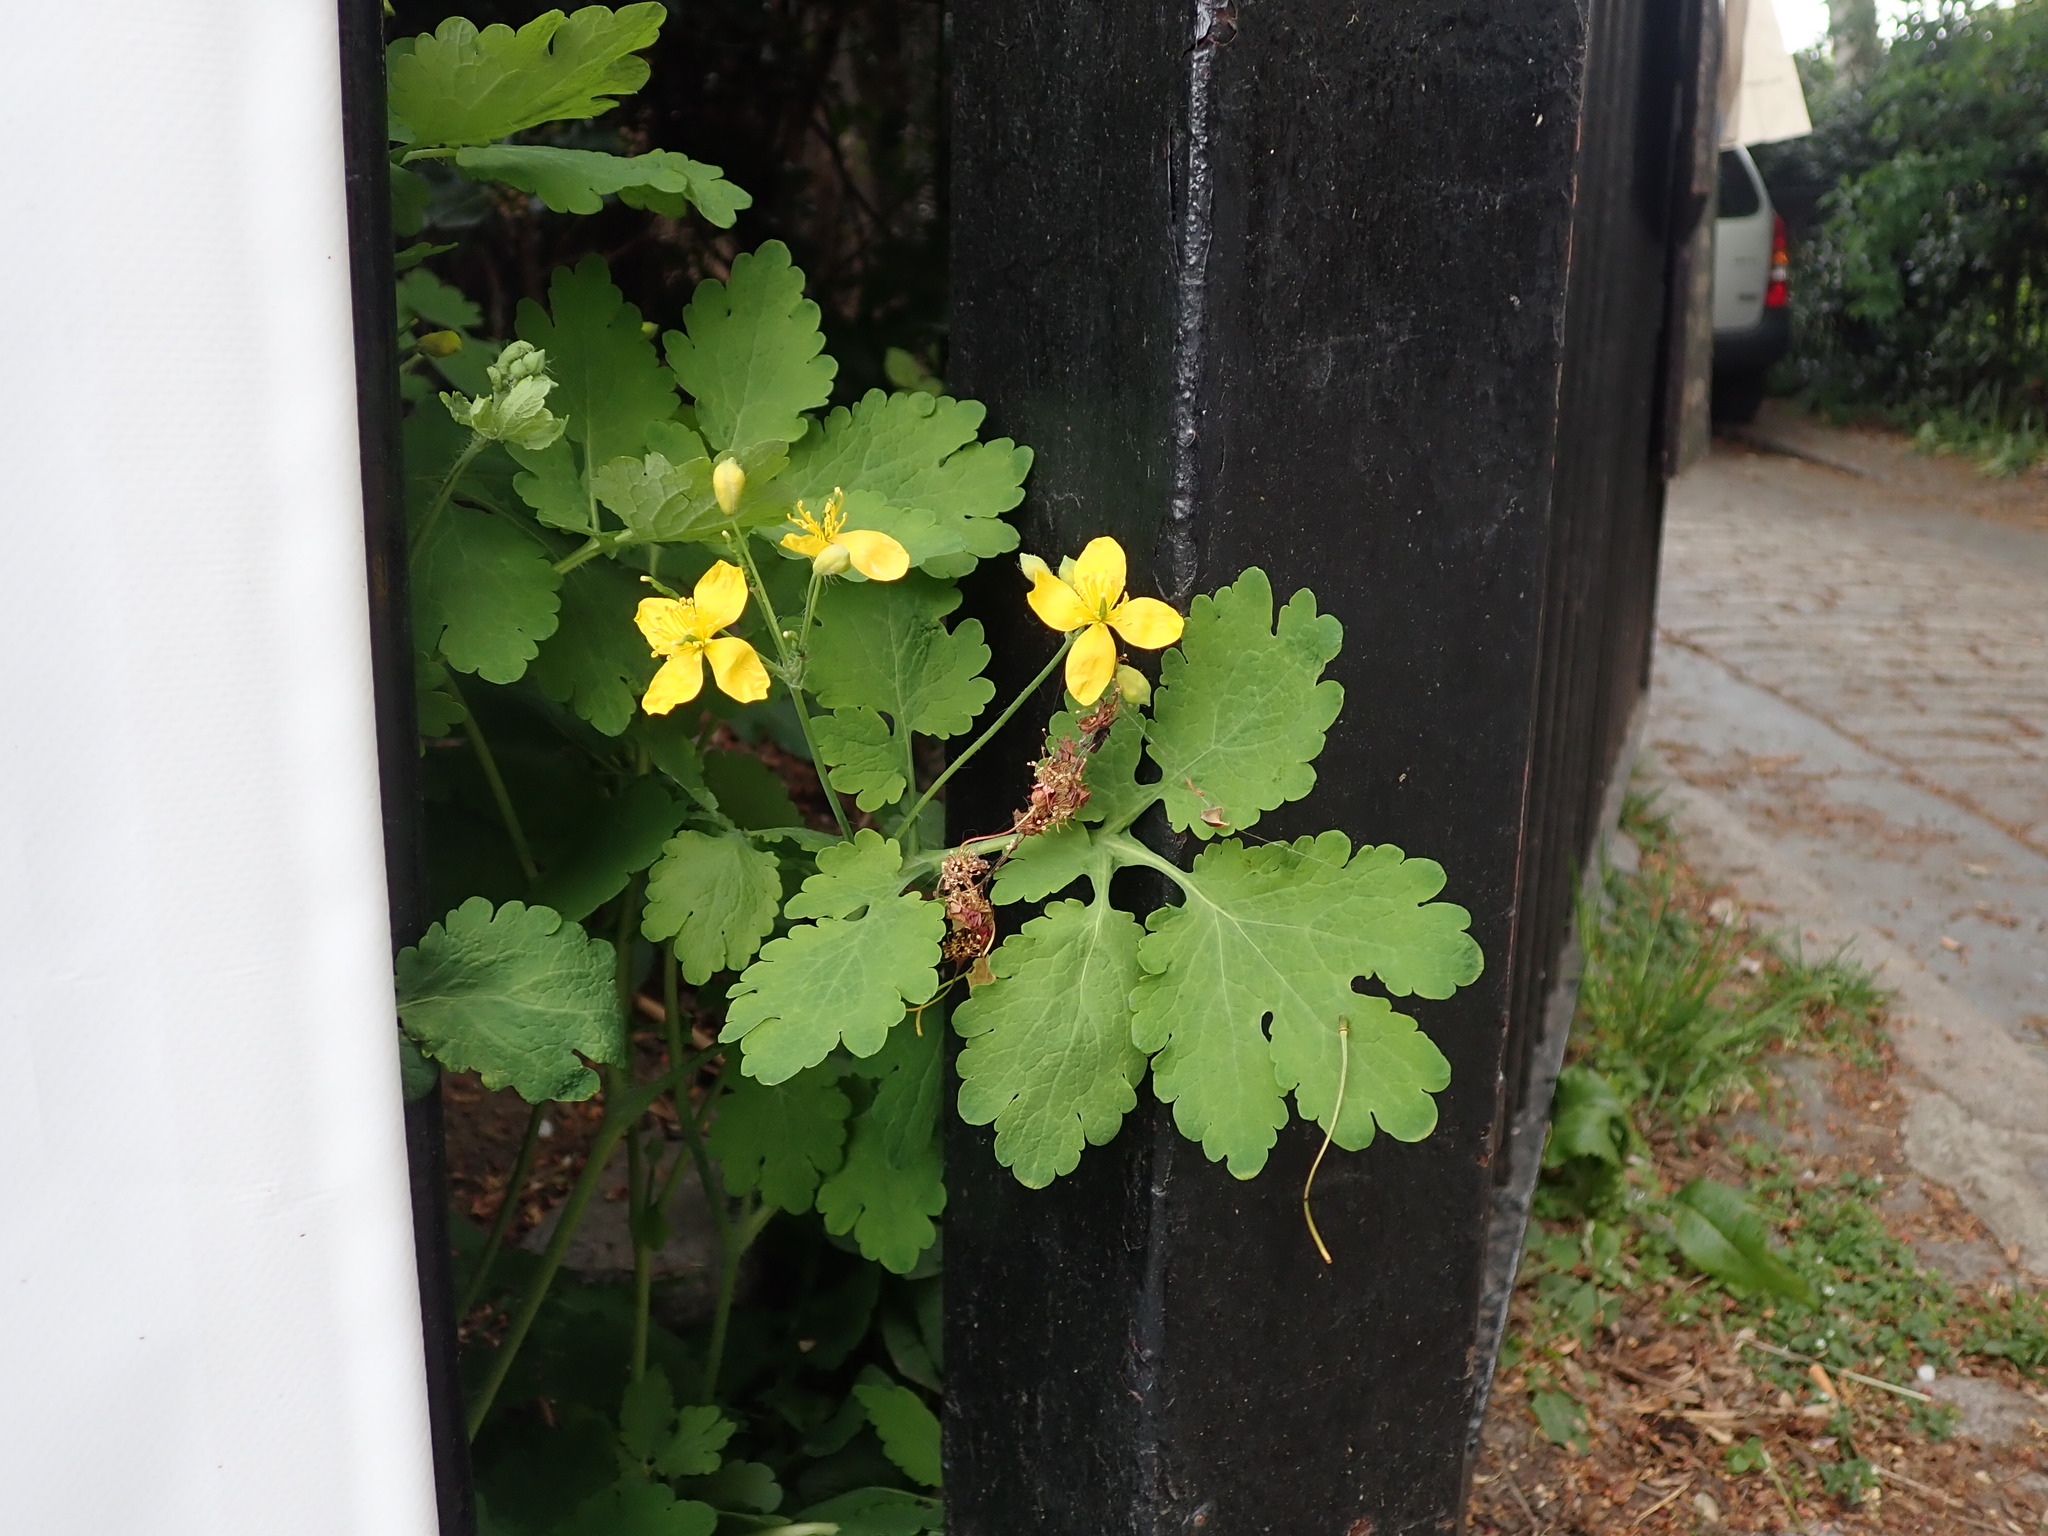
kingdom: Plantae
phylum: Tracheophyta
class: Magnoliopsida
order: Ranunculales
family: Papaveraceae
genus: Chelidonium
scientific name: Chelidonium majus
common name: Greater celandine
